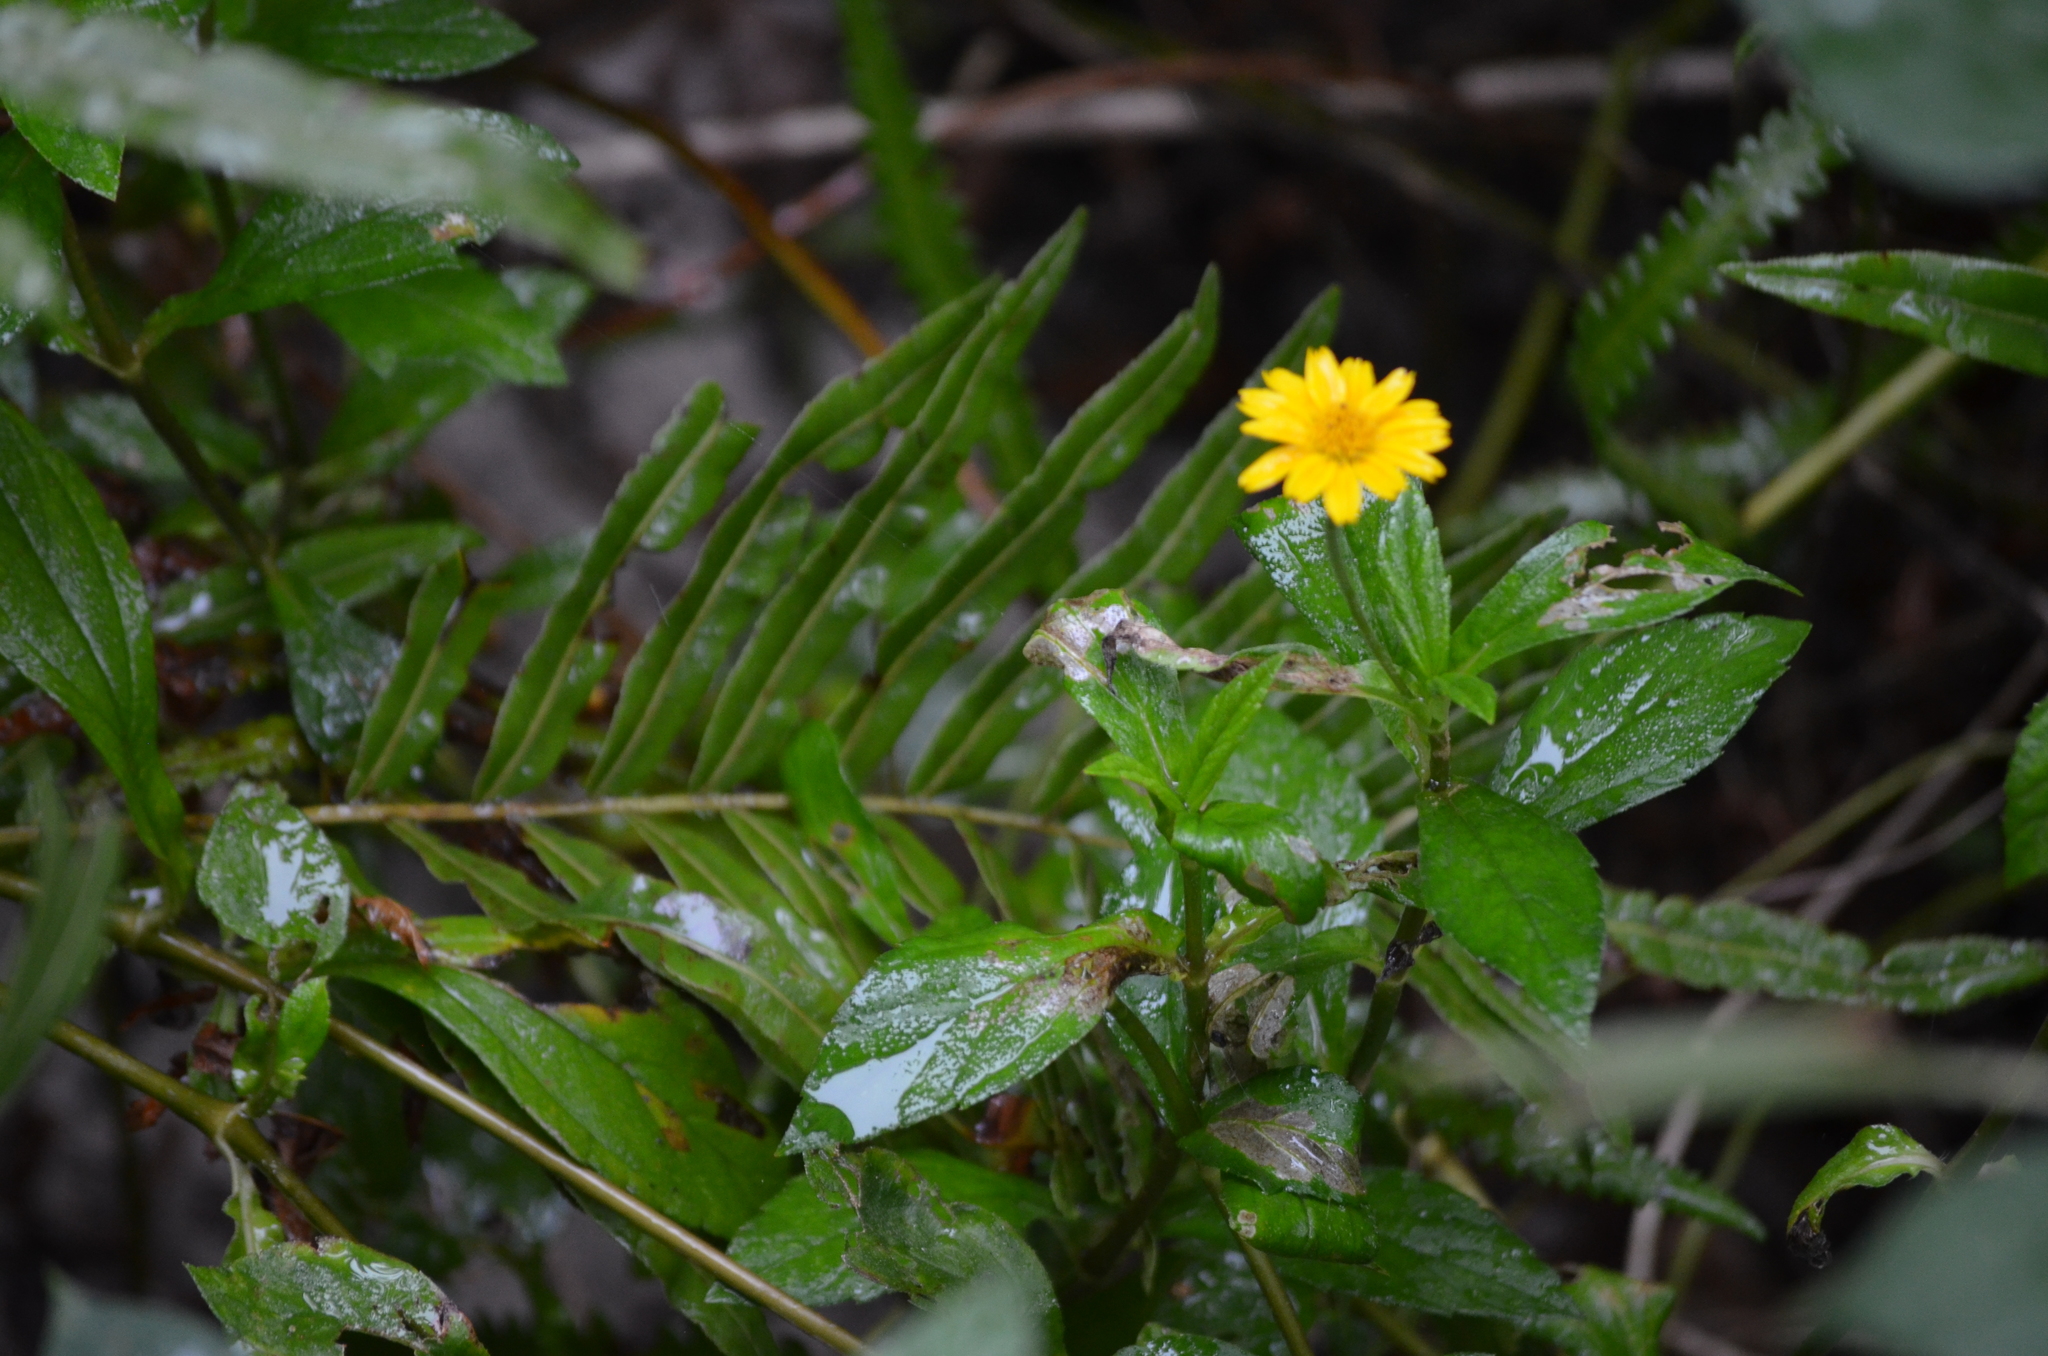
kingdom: Plantae
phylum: Tracheophyta
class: Magnoliopsida
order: Asterales
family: Asteraceae
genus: Sphagneticola
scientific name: Sphagneticola trilobata
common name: Bay biscayne creeping-oxeye
